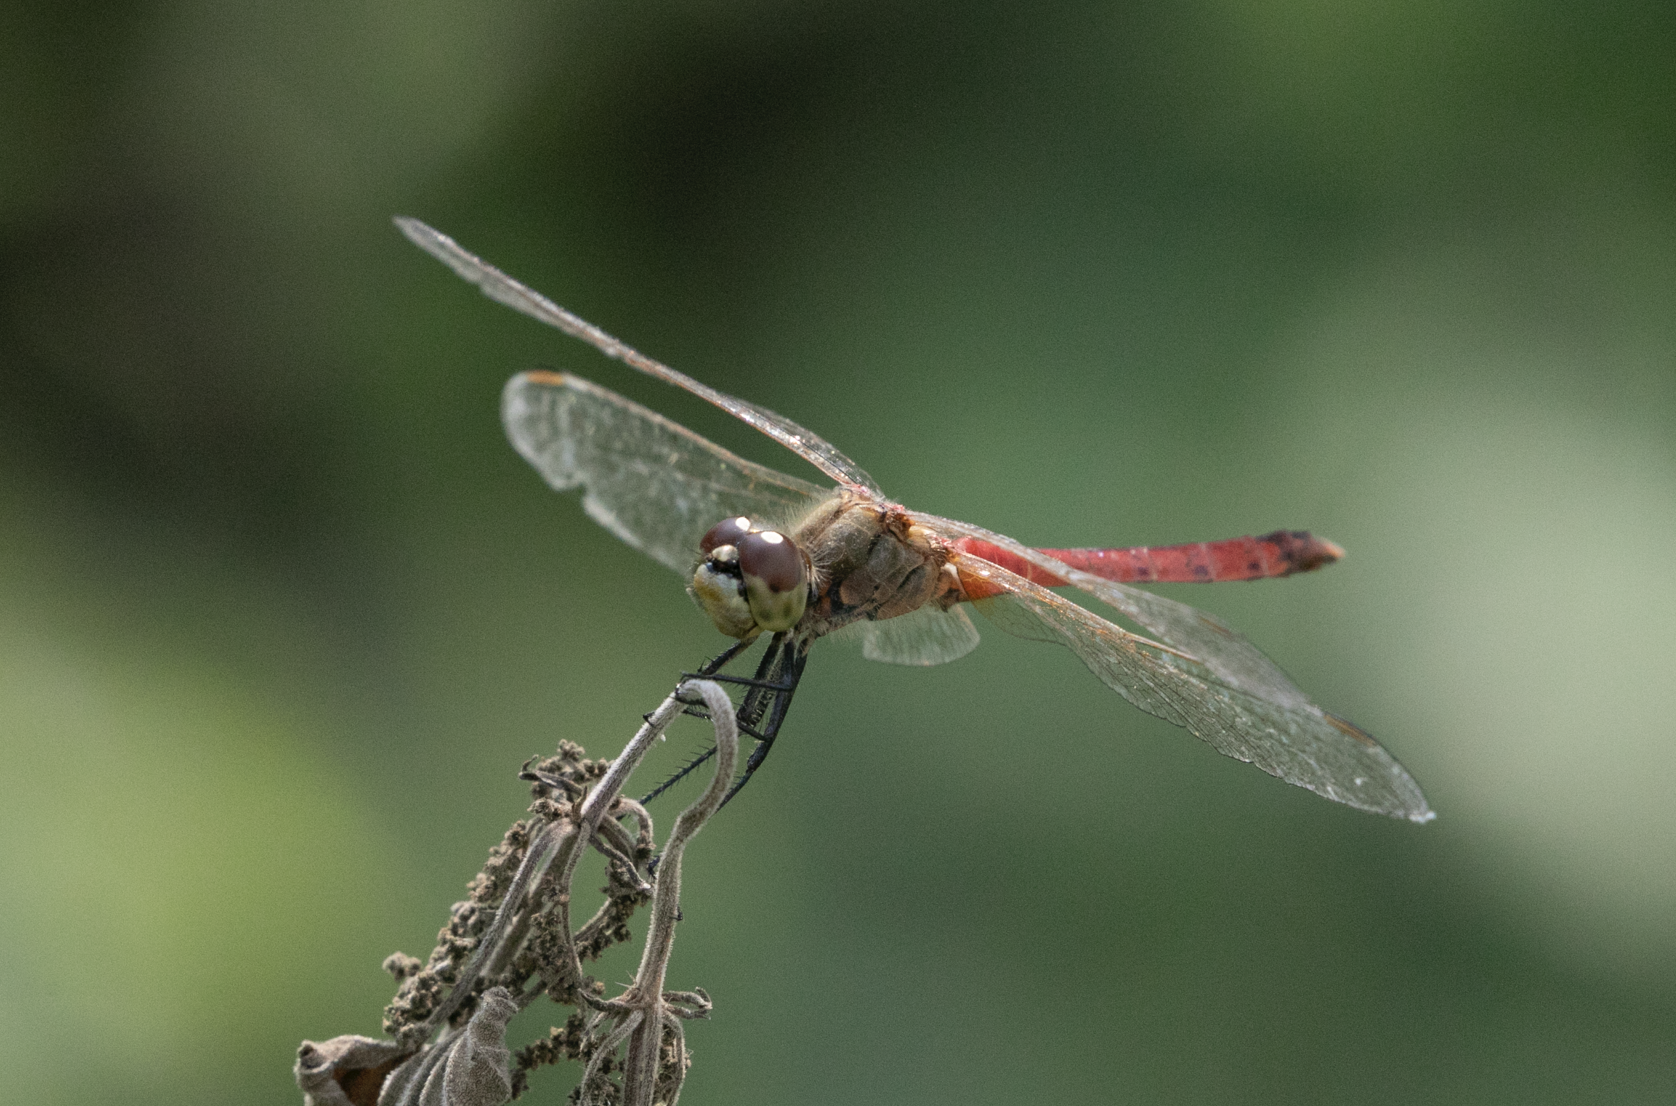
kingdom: Animalia
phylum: Arthropoda
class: Insecta
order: Odonata
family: Libellulidae
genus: Sympetrum
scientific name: Sympetrum depressiusculum
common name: Spotted darter
